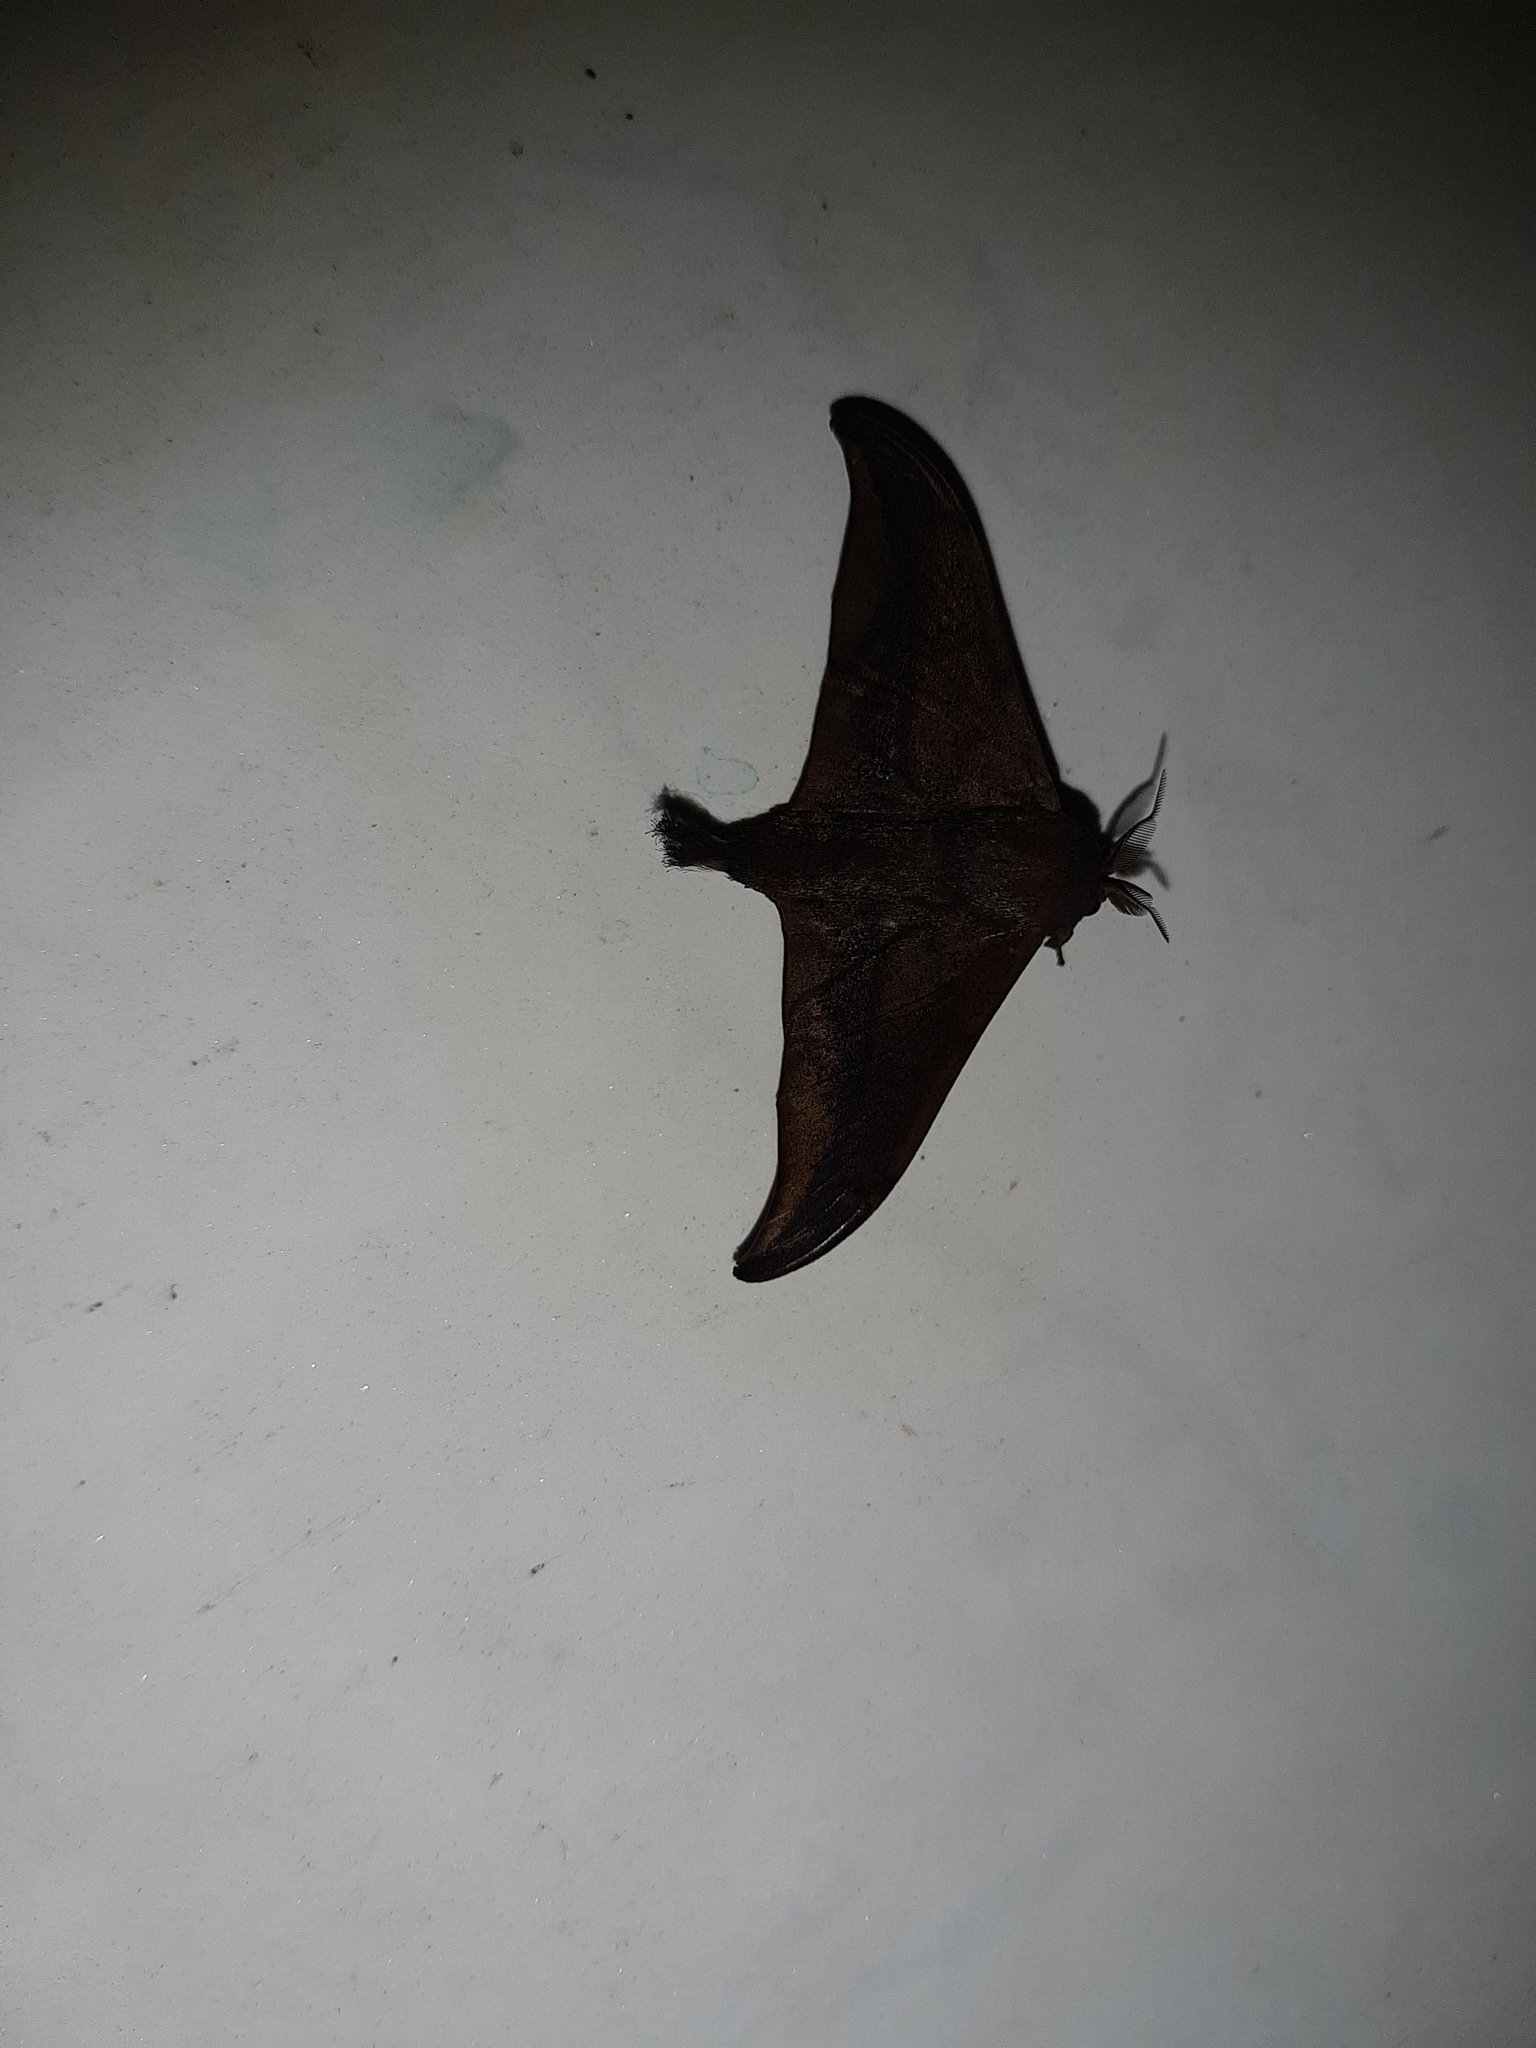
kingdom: Animalia
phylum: Arthropoda
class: Insecta
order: Lepidoptera
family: Mimallonidae
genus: Psychocampa
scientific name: Psychocampa concolor
